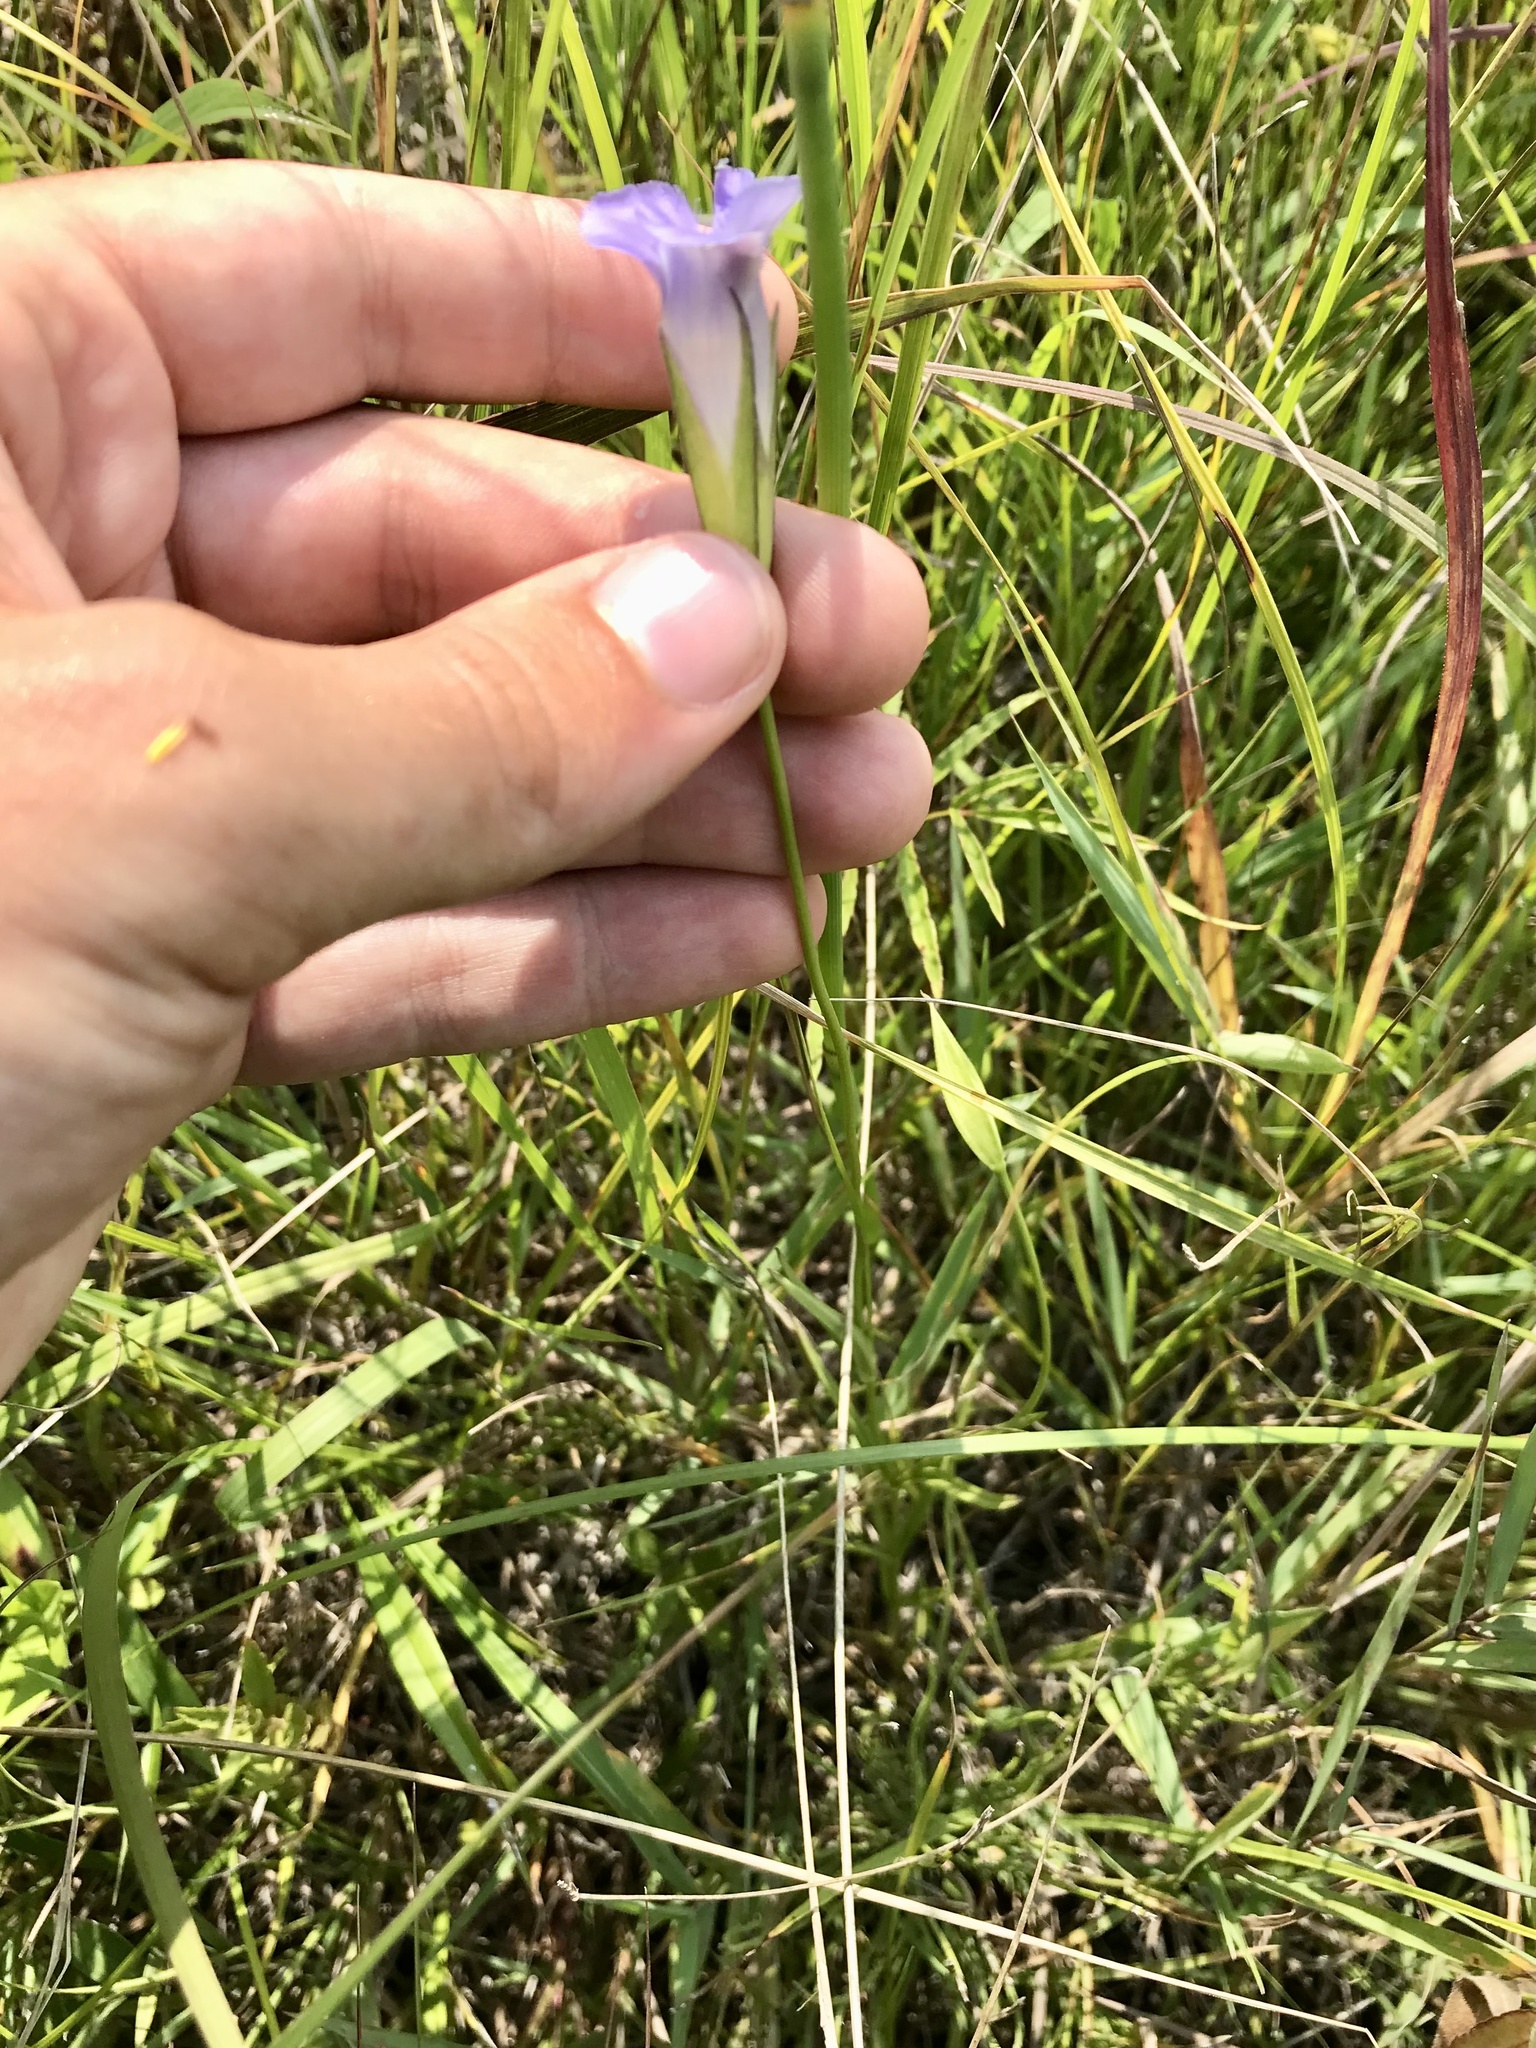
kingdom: Plantae
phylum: Tracheophyta
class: Magnoliopsida
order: Gentianales
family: Gentianaceae
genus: Gentianopsis
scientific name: Gentianopsis virgata
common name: Lesser fringed-gentian
